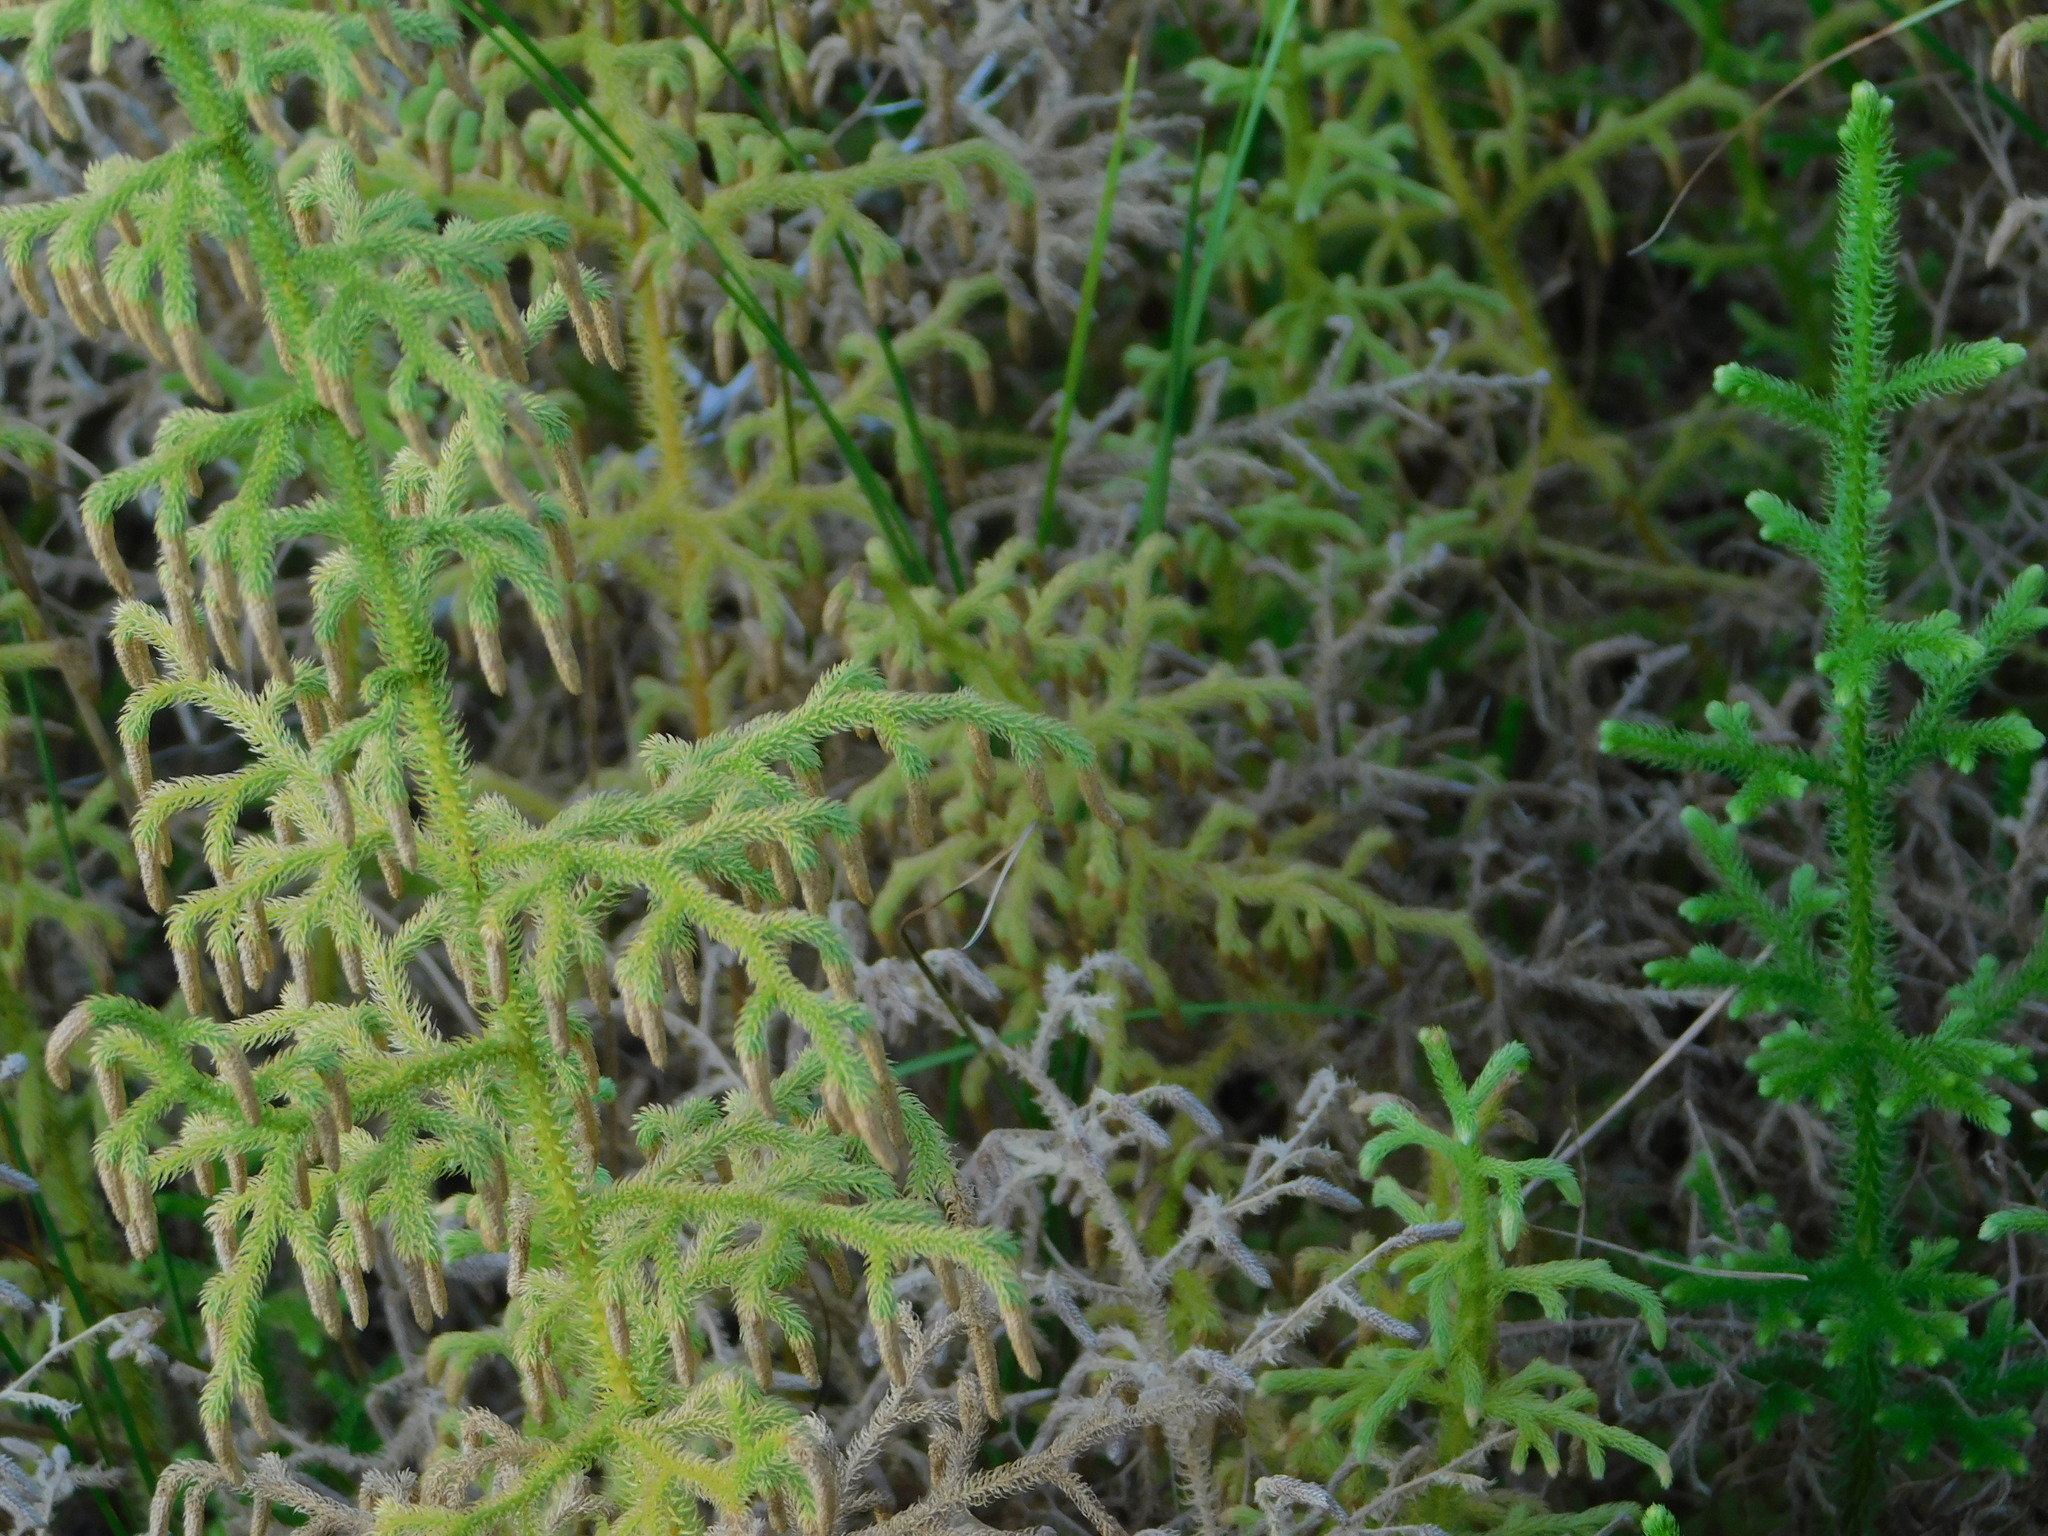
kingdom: Plantae
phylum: Tracheophyta
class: Lycopodiopsida
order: Lycopodiales
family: Lycopodiaceae
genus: Palhinhaea
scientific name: Palhinhaea cernua
